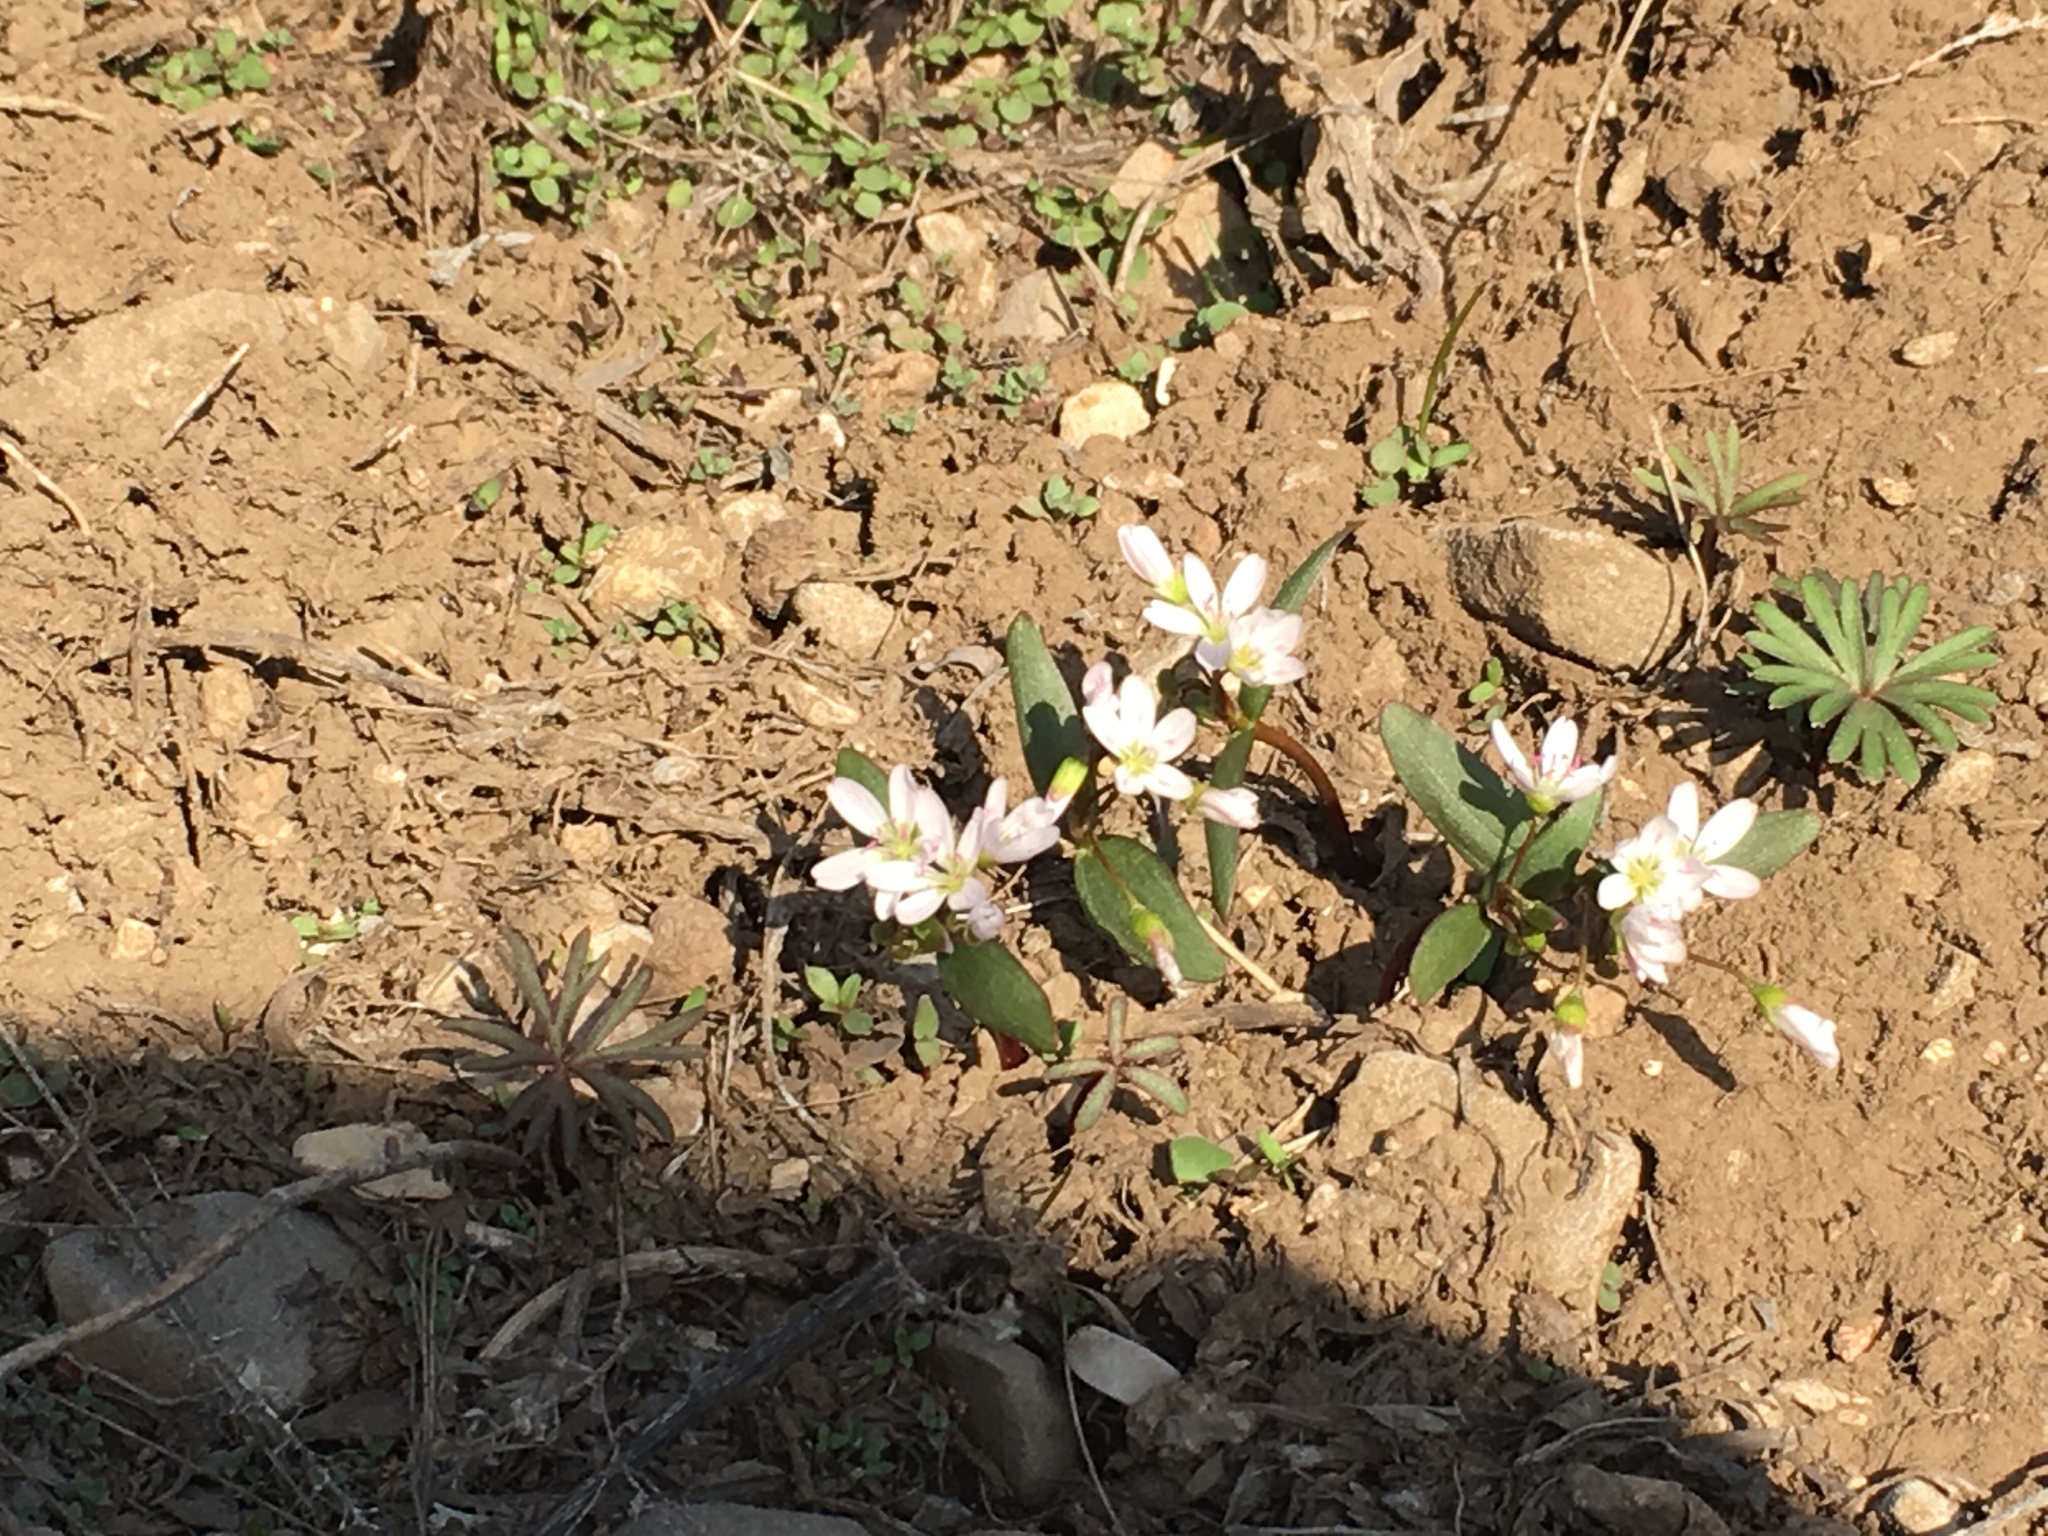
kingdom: Plantae
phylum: Tracheophyta
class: Magnoliopsida
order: Caryophyllales
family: Montiaceae
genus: Claytonia
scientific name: Claytonia lanceolata
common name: Western spring-beauty
